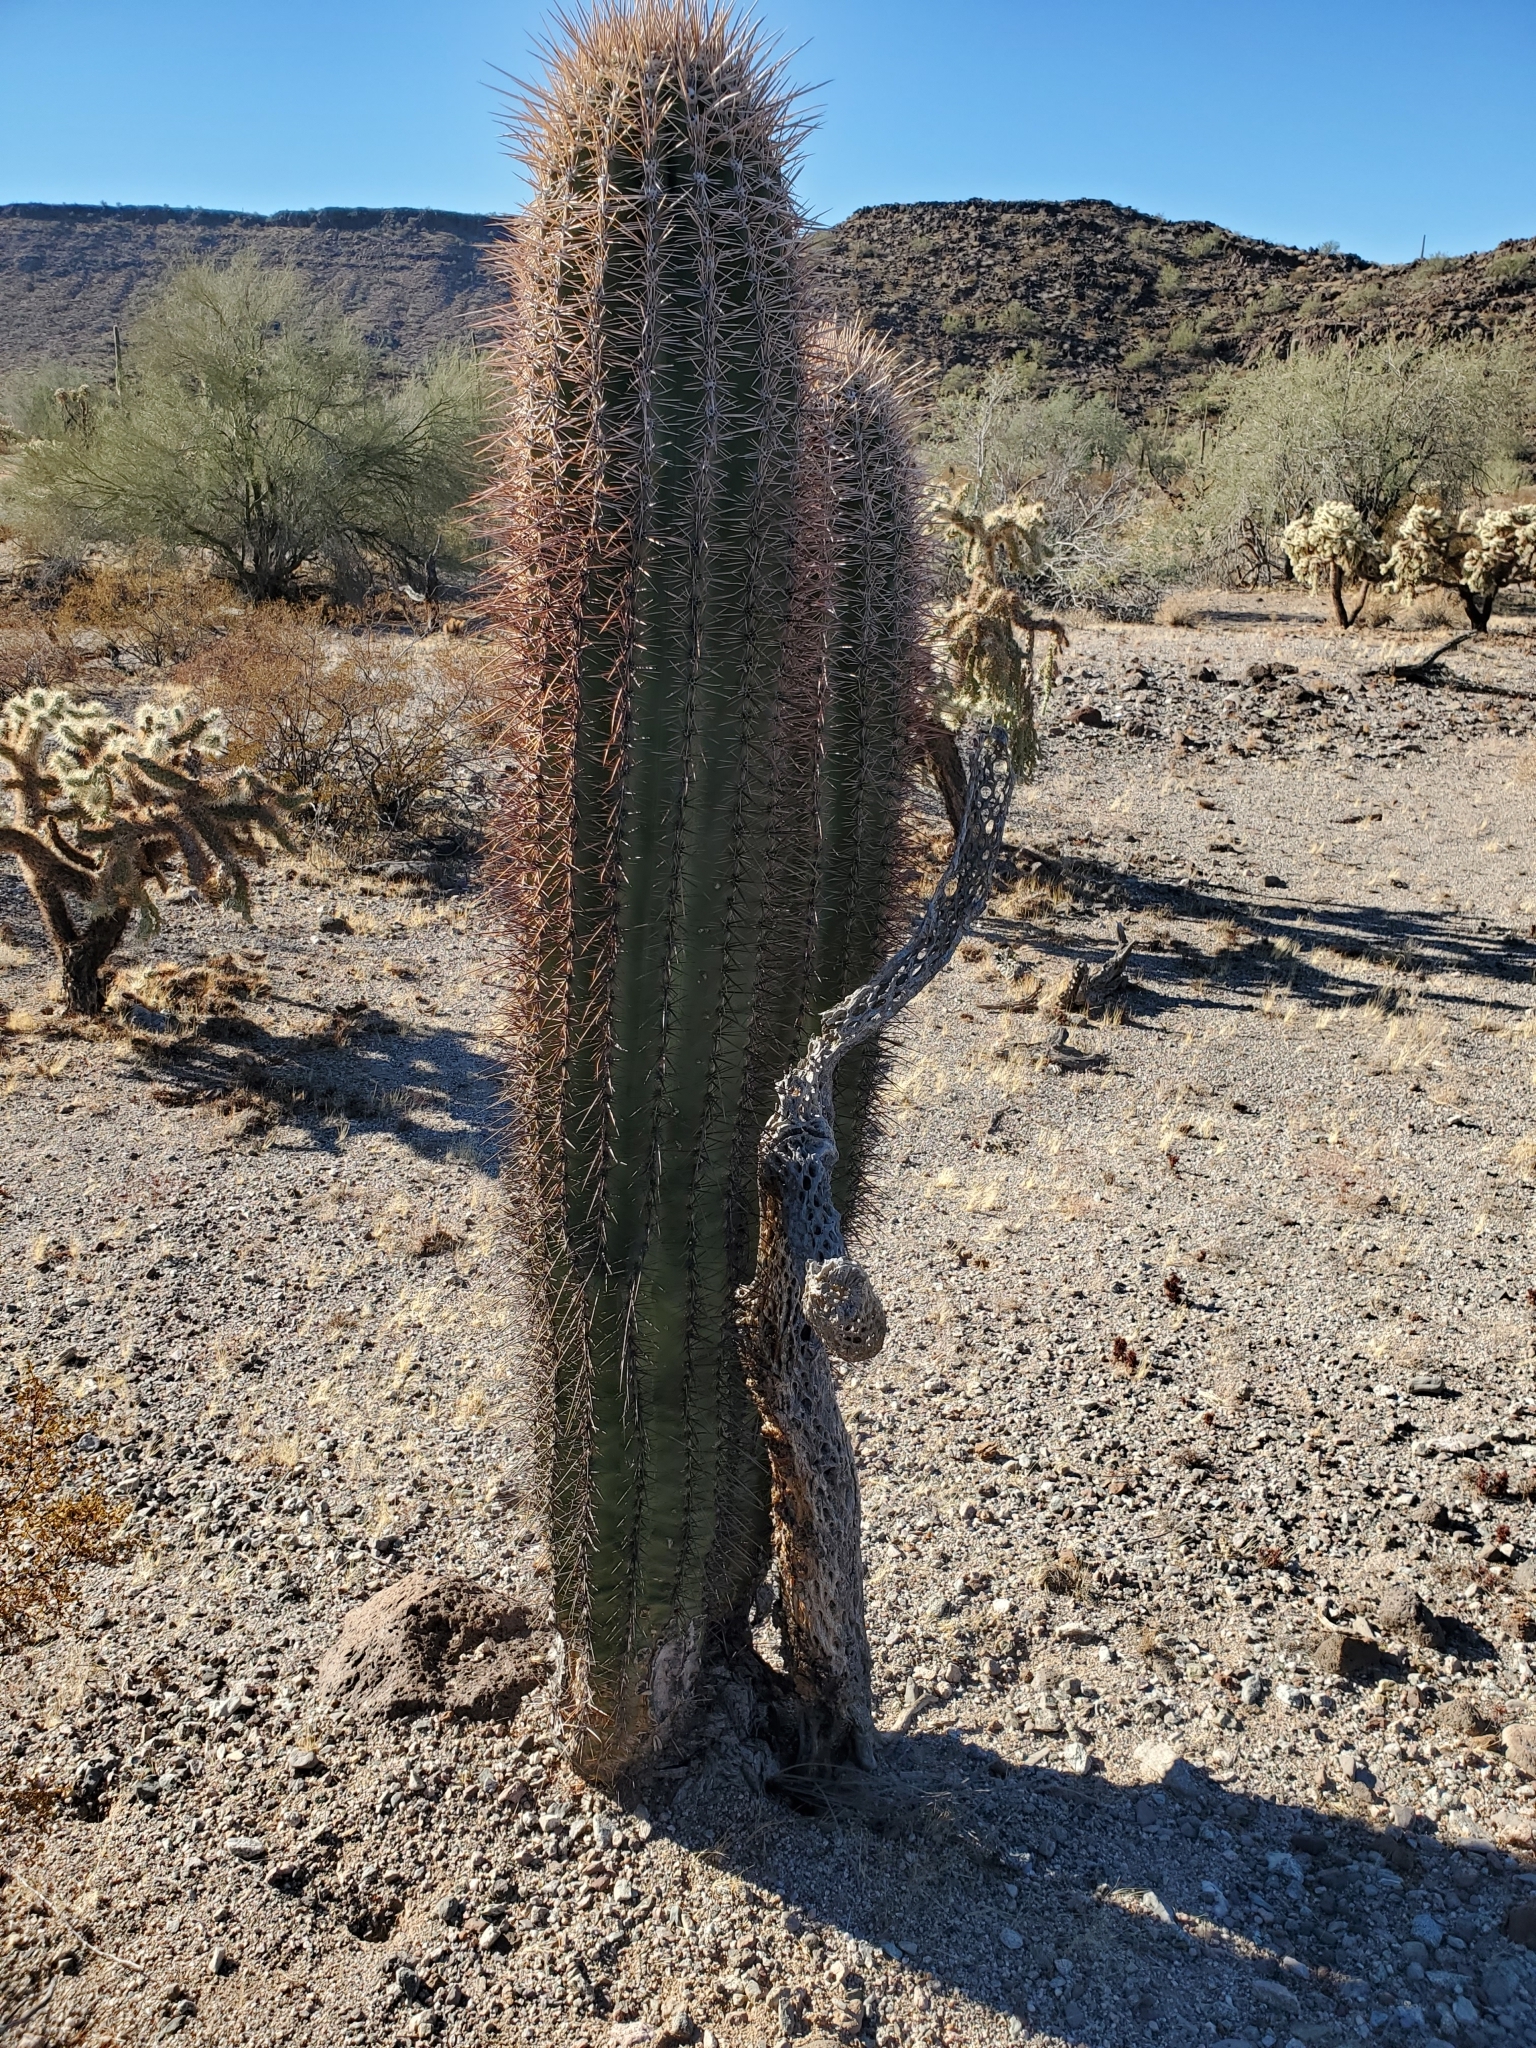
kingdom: Plantae
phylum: Tracheophyta
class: Magnoliopsida
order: Caryophyllales
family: Cactaceae
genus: Carnegiea
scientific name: Carnegiea gigantea
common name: Saguaro
